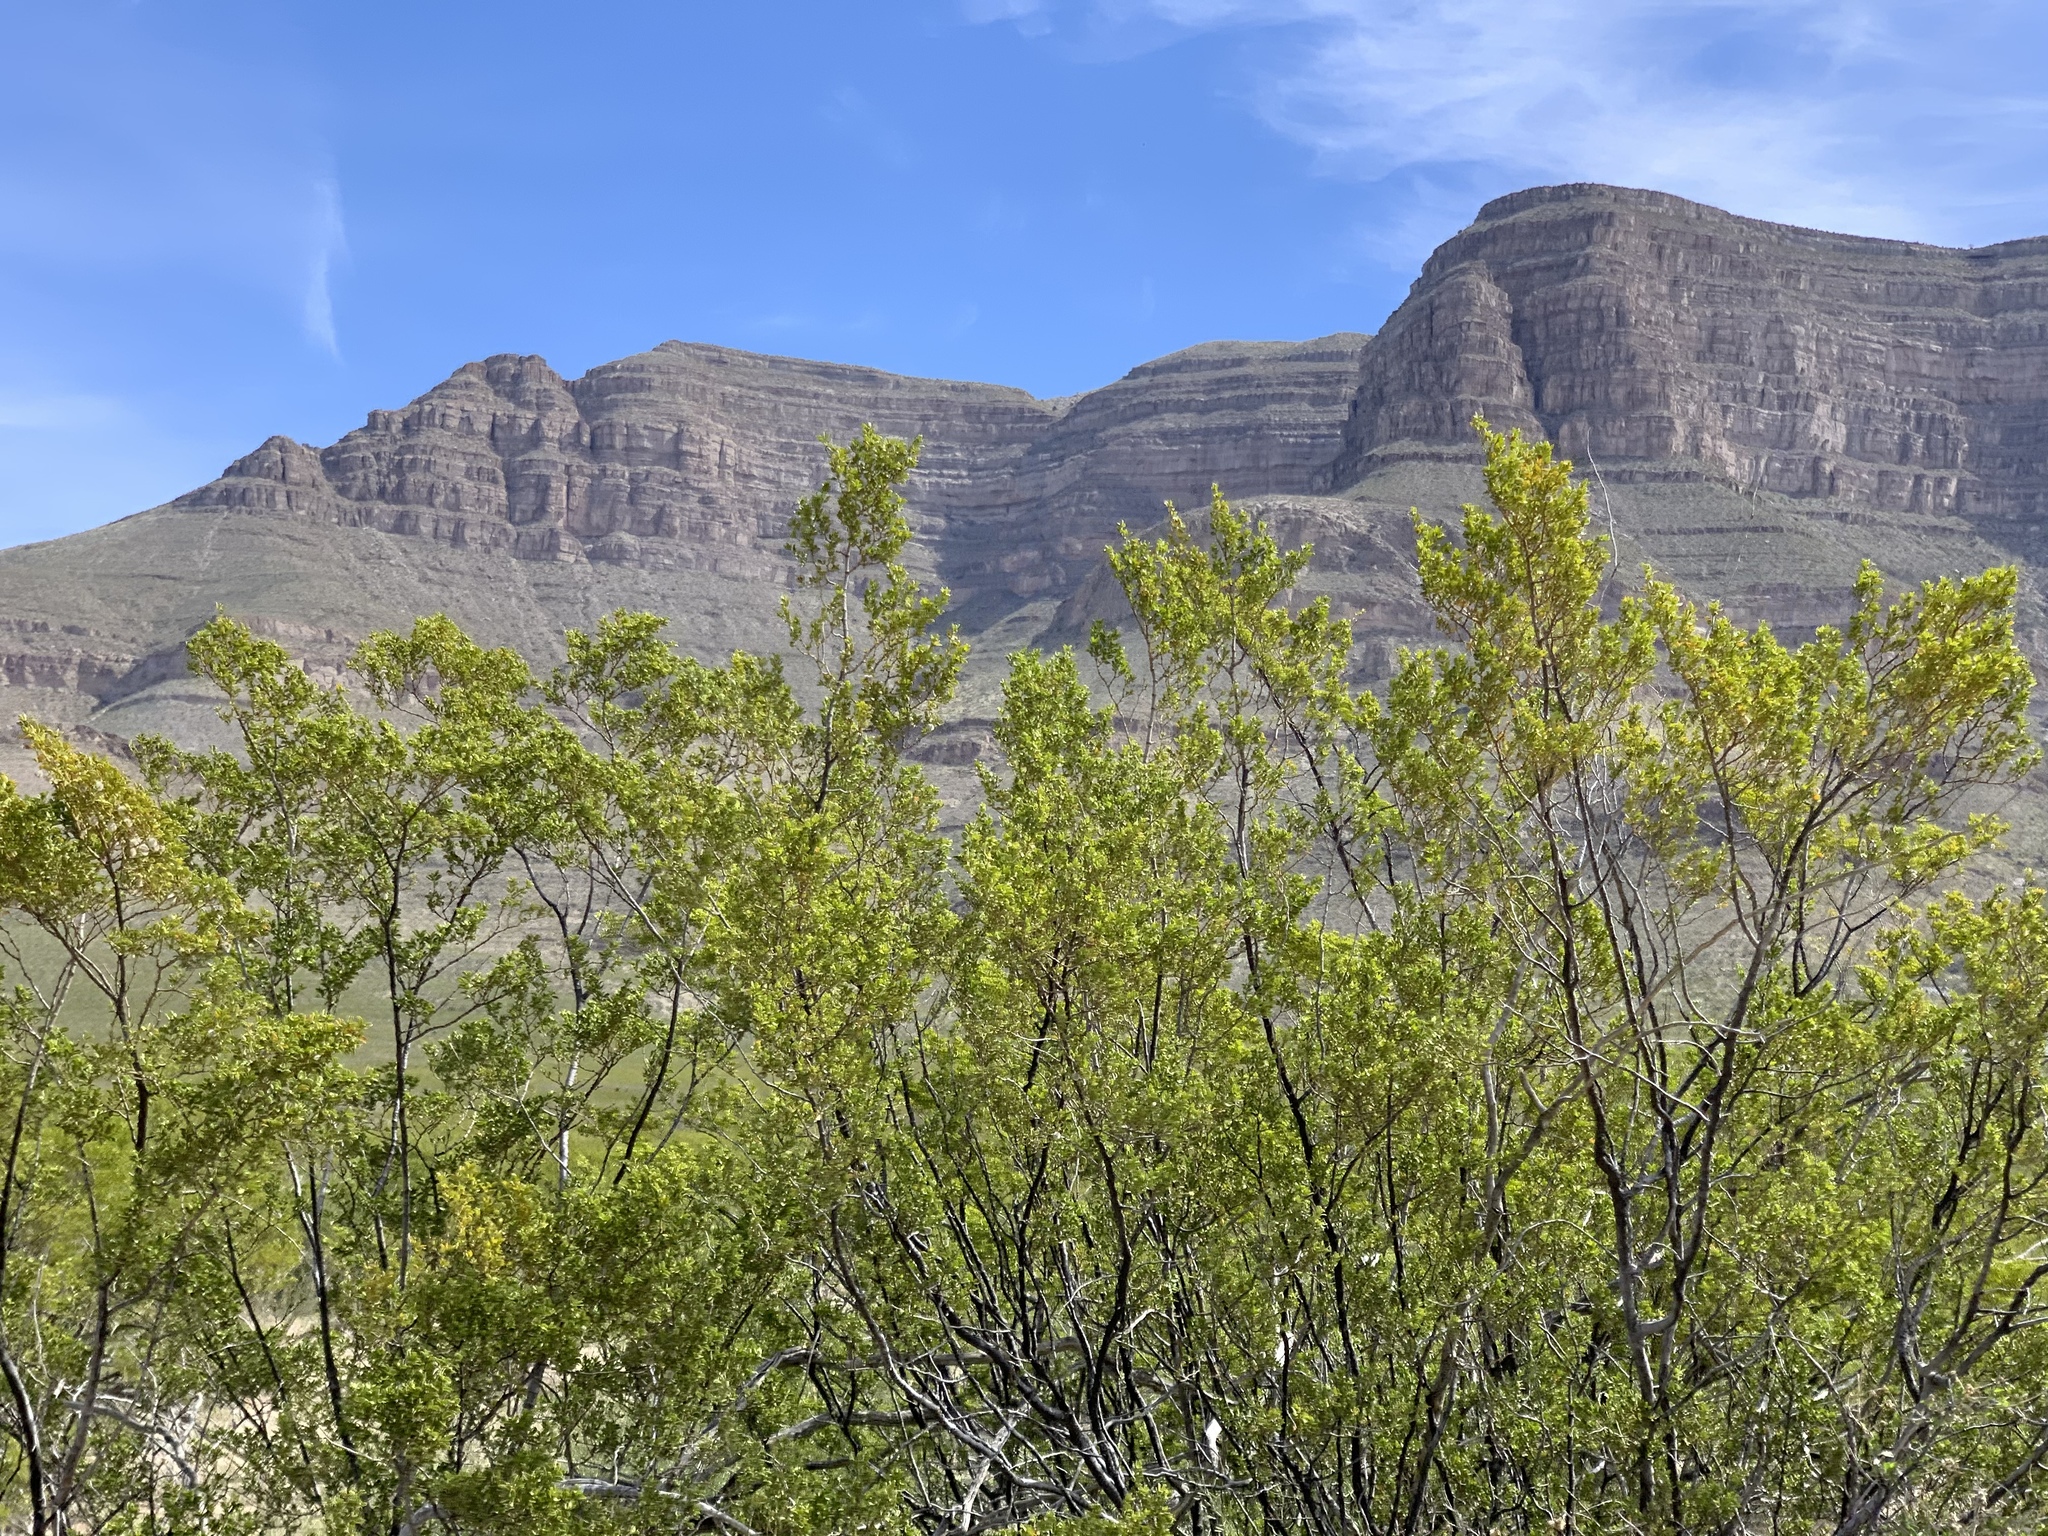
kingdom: Plantae
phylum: Tracheophyta
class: Magnoliopsida
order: Zygophyllales
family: Zygophyllaceae
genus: Larrea
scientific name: Larrea tridentata
